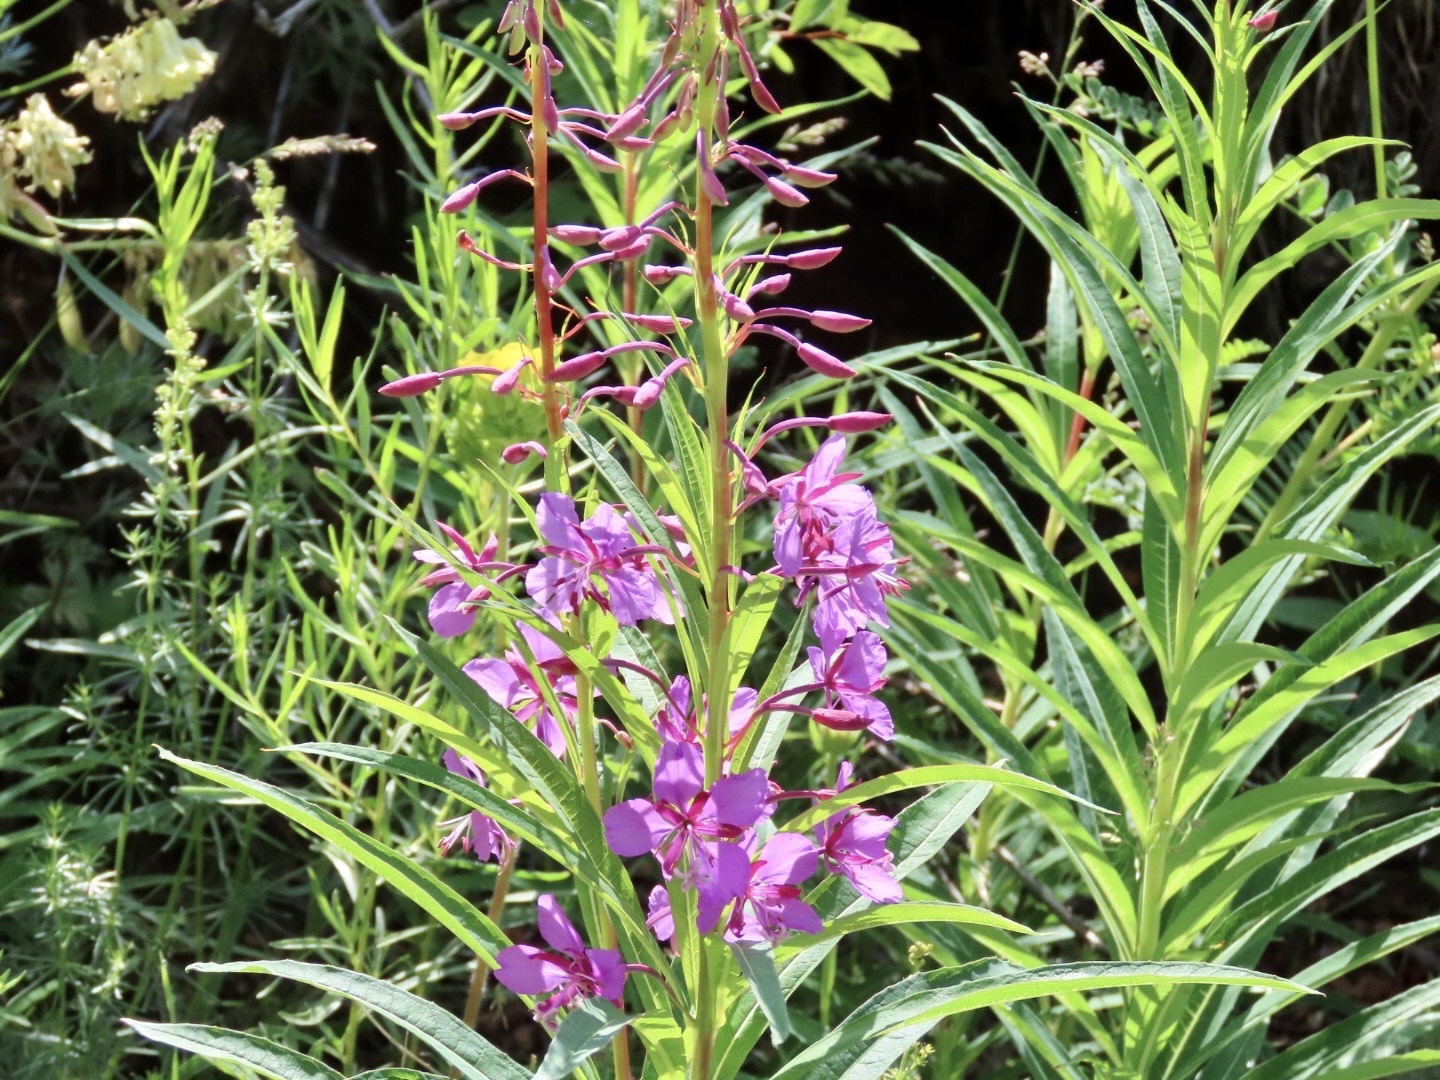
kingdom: Plantae
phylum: Tracheophyta
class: Magnoliopsida
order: Myrtales
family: Onagraceae
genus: Chamaenerion
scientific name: Chamaenerion angustifolium
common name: Fireweed
